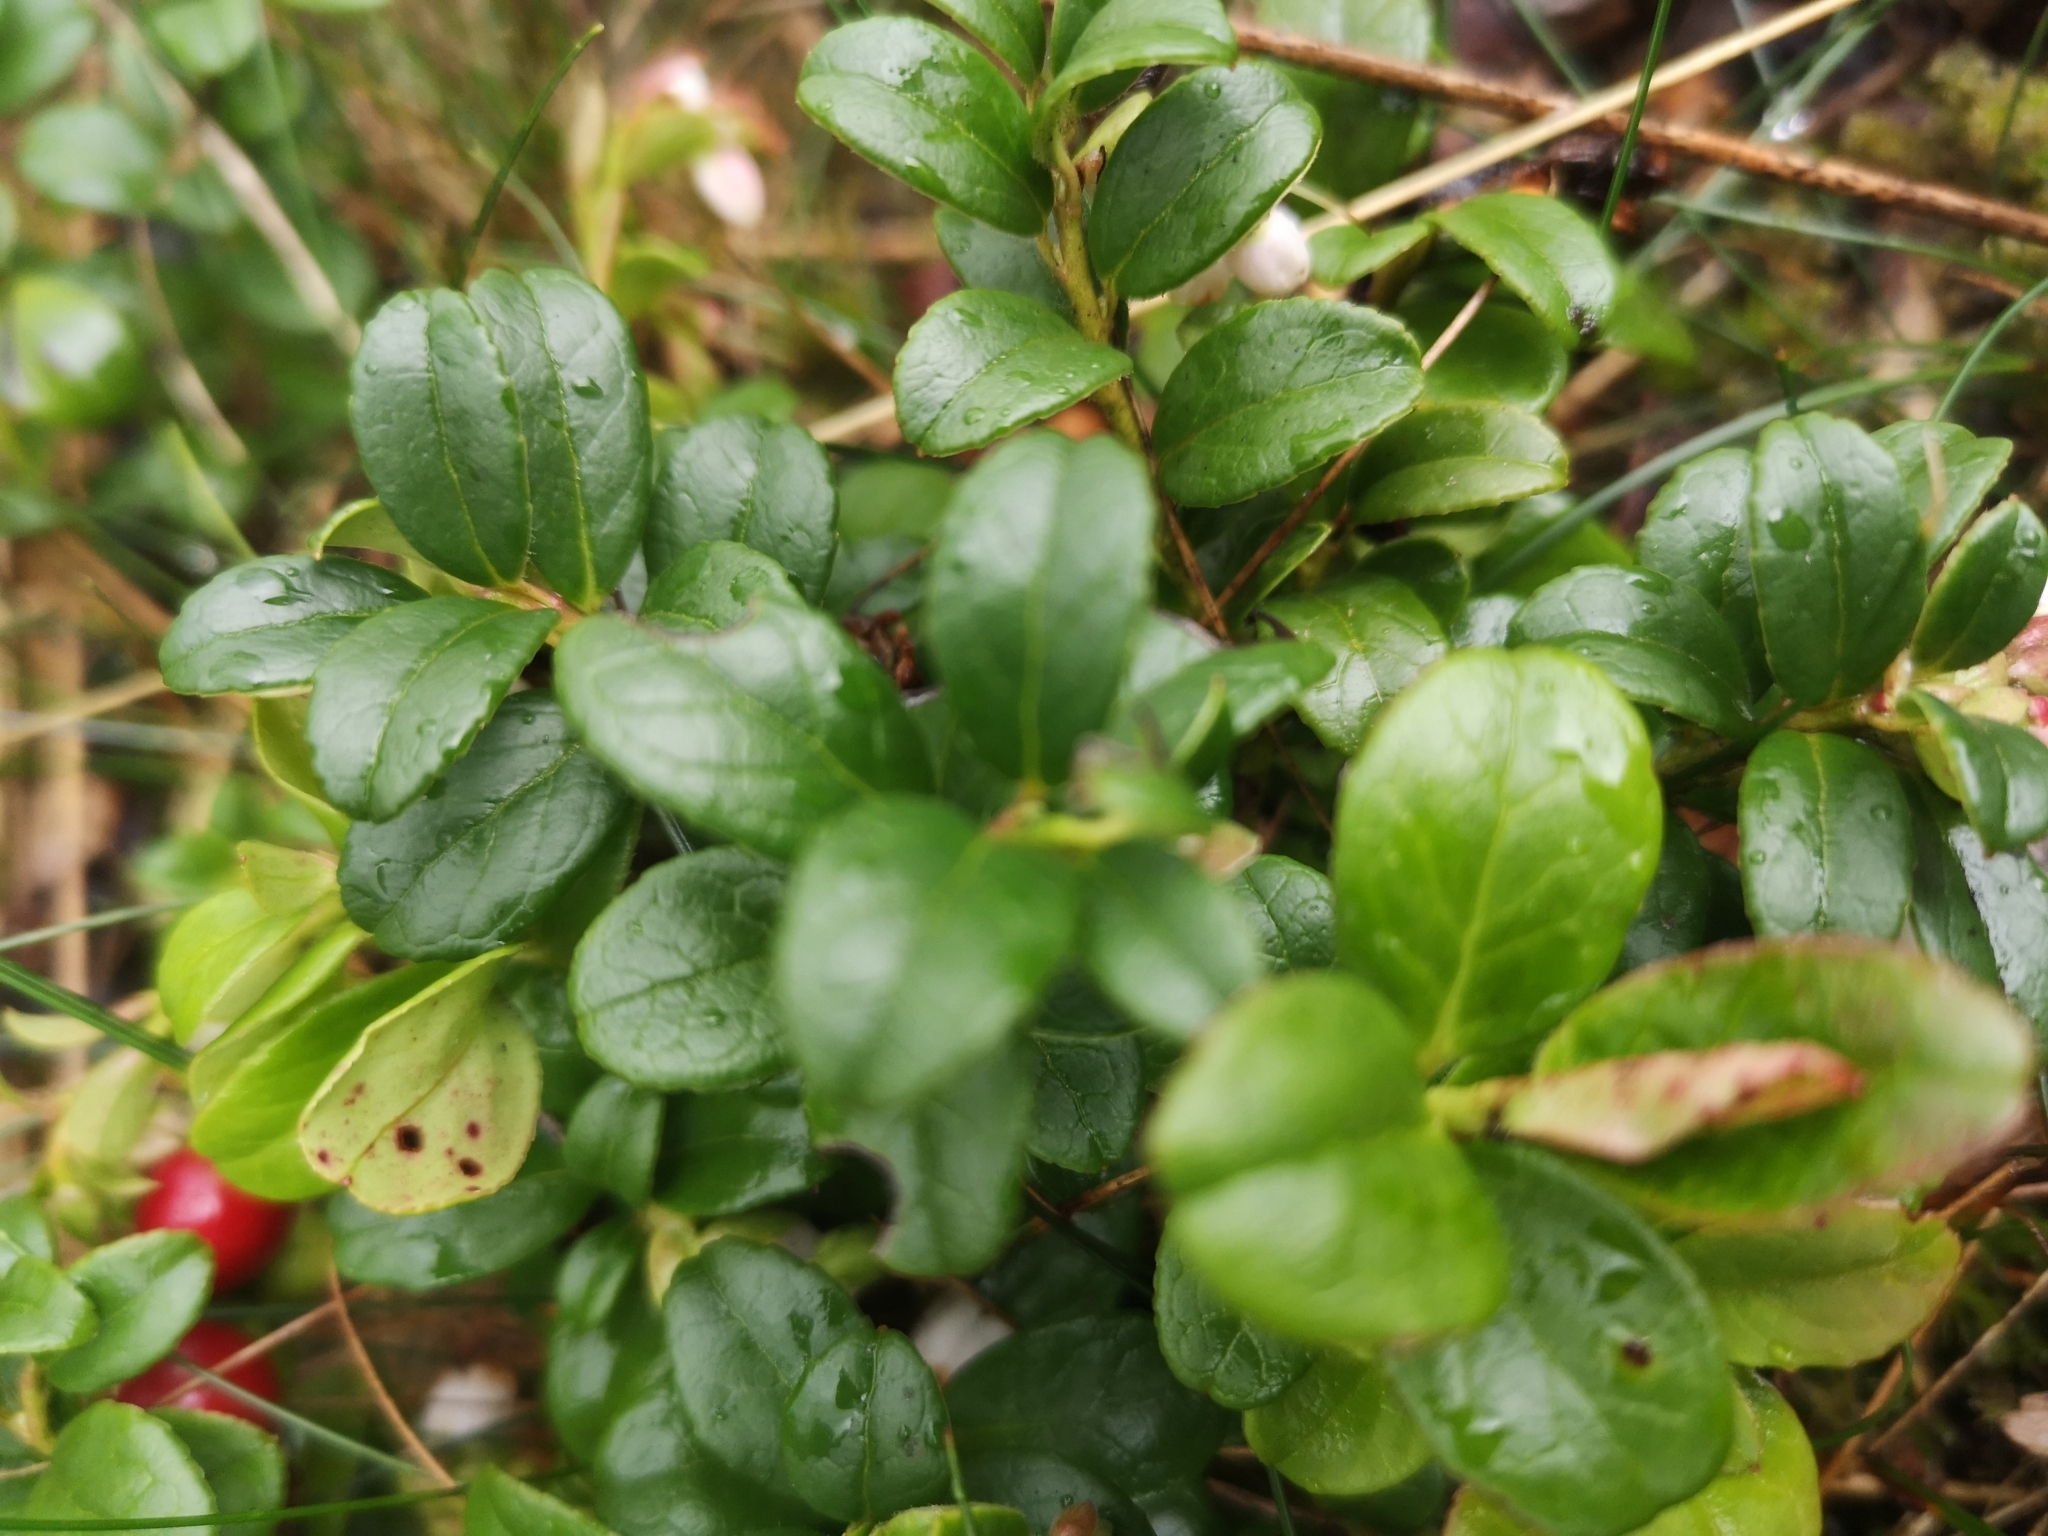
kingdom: Plantae
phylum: Tracheophyta
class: Magnoliopsida
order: Ericales
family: Ericaceae
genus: Vaccinium
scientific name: Vaccinium vitis-idaea
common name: Cowberry
